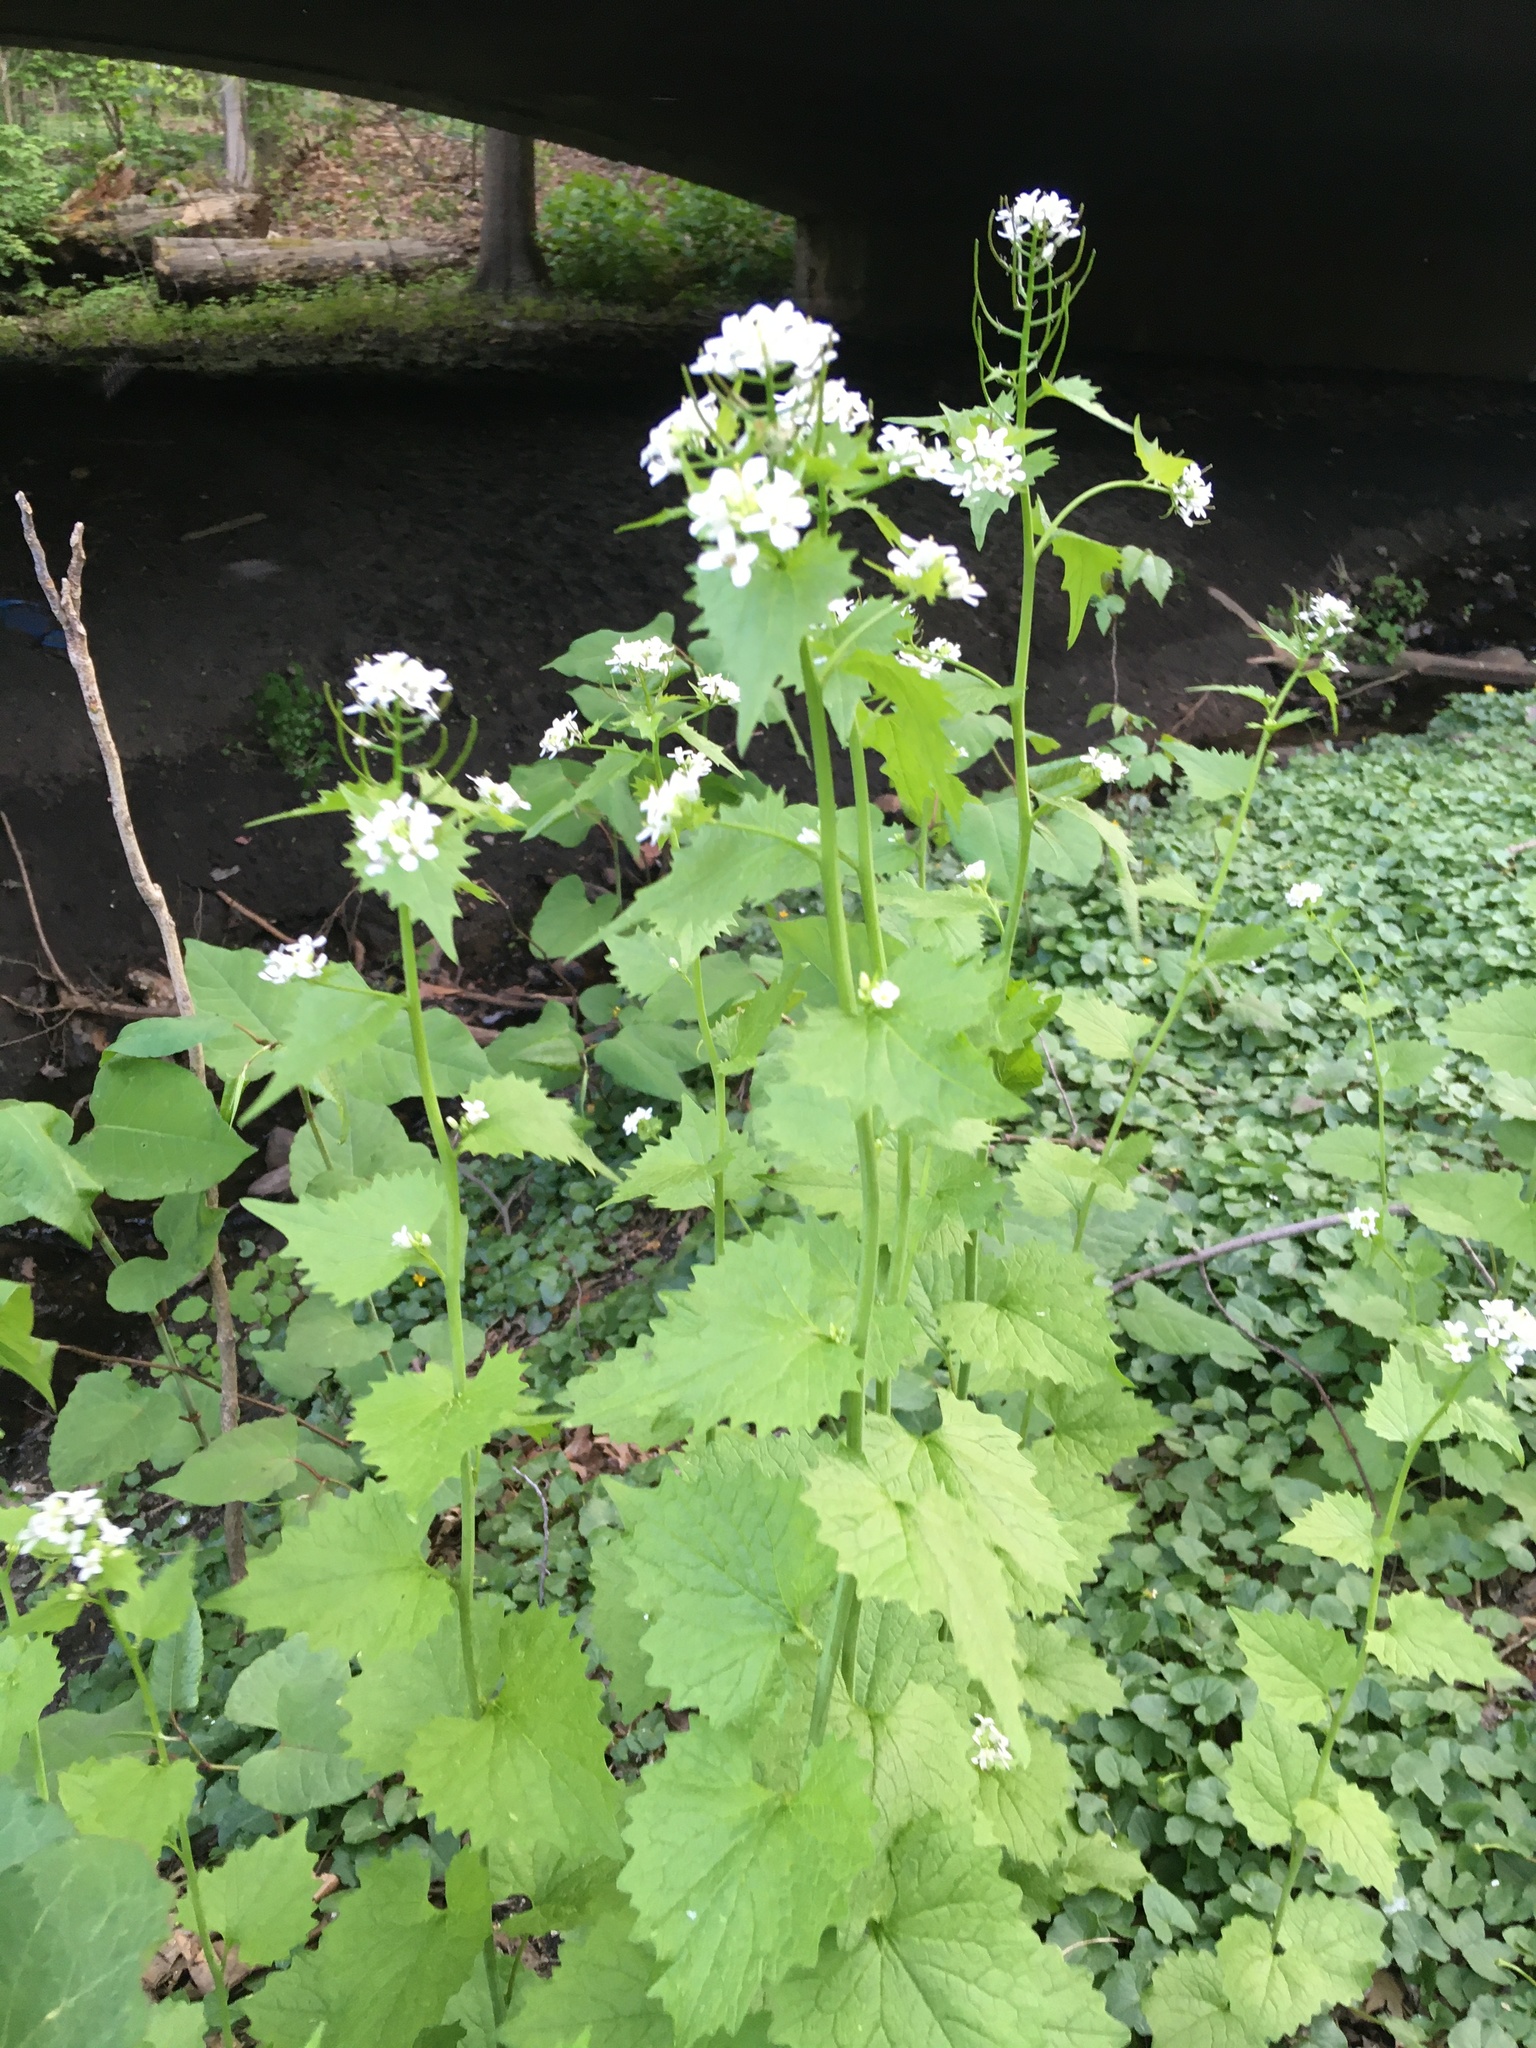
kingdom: Plantae
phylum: Tracheophyta
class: Magnoliopsida
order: Brassicales
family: Brassicaceae
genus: Alliaria
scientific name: Alliaria petiolata
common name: Garlic mustard
